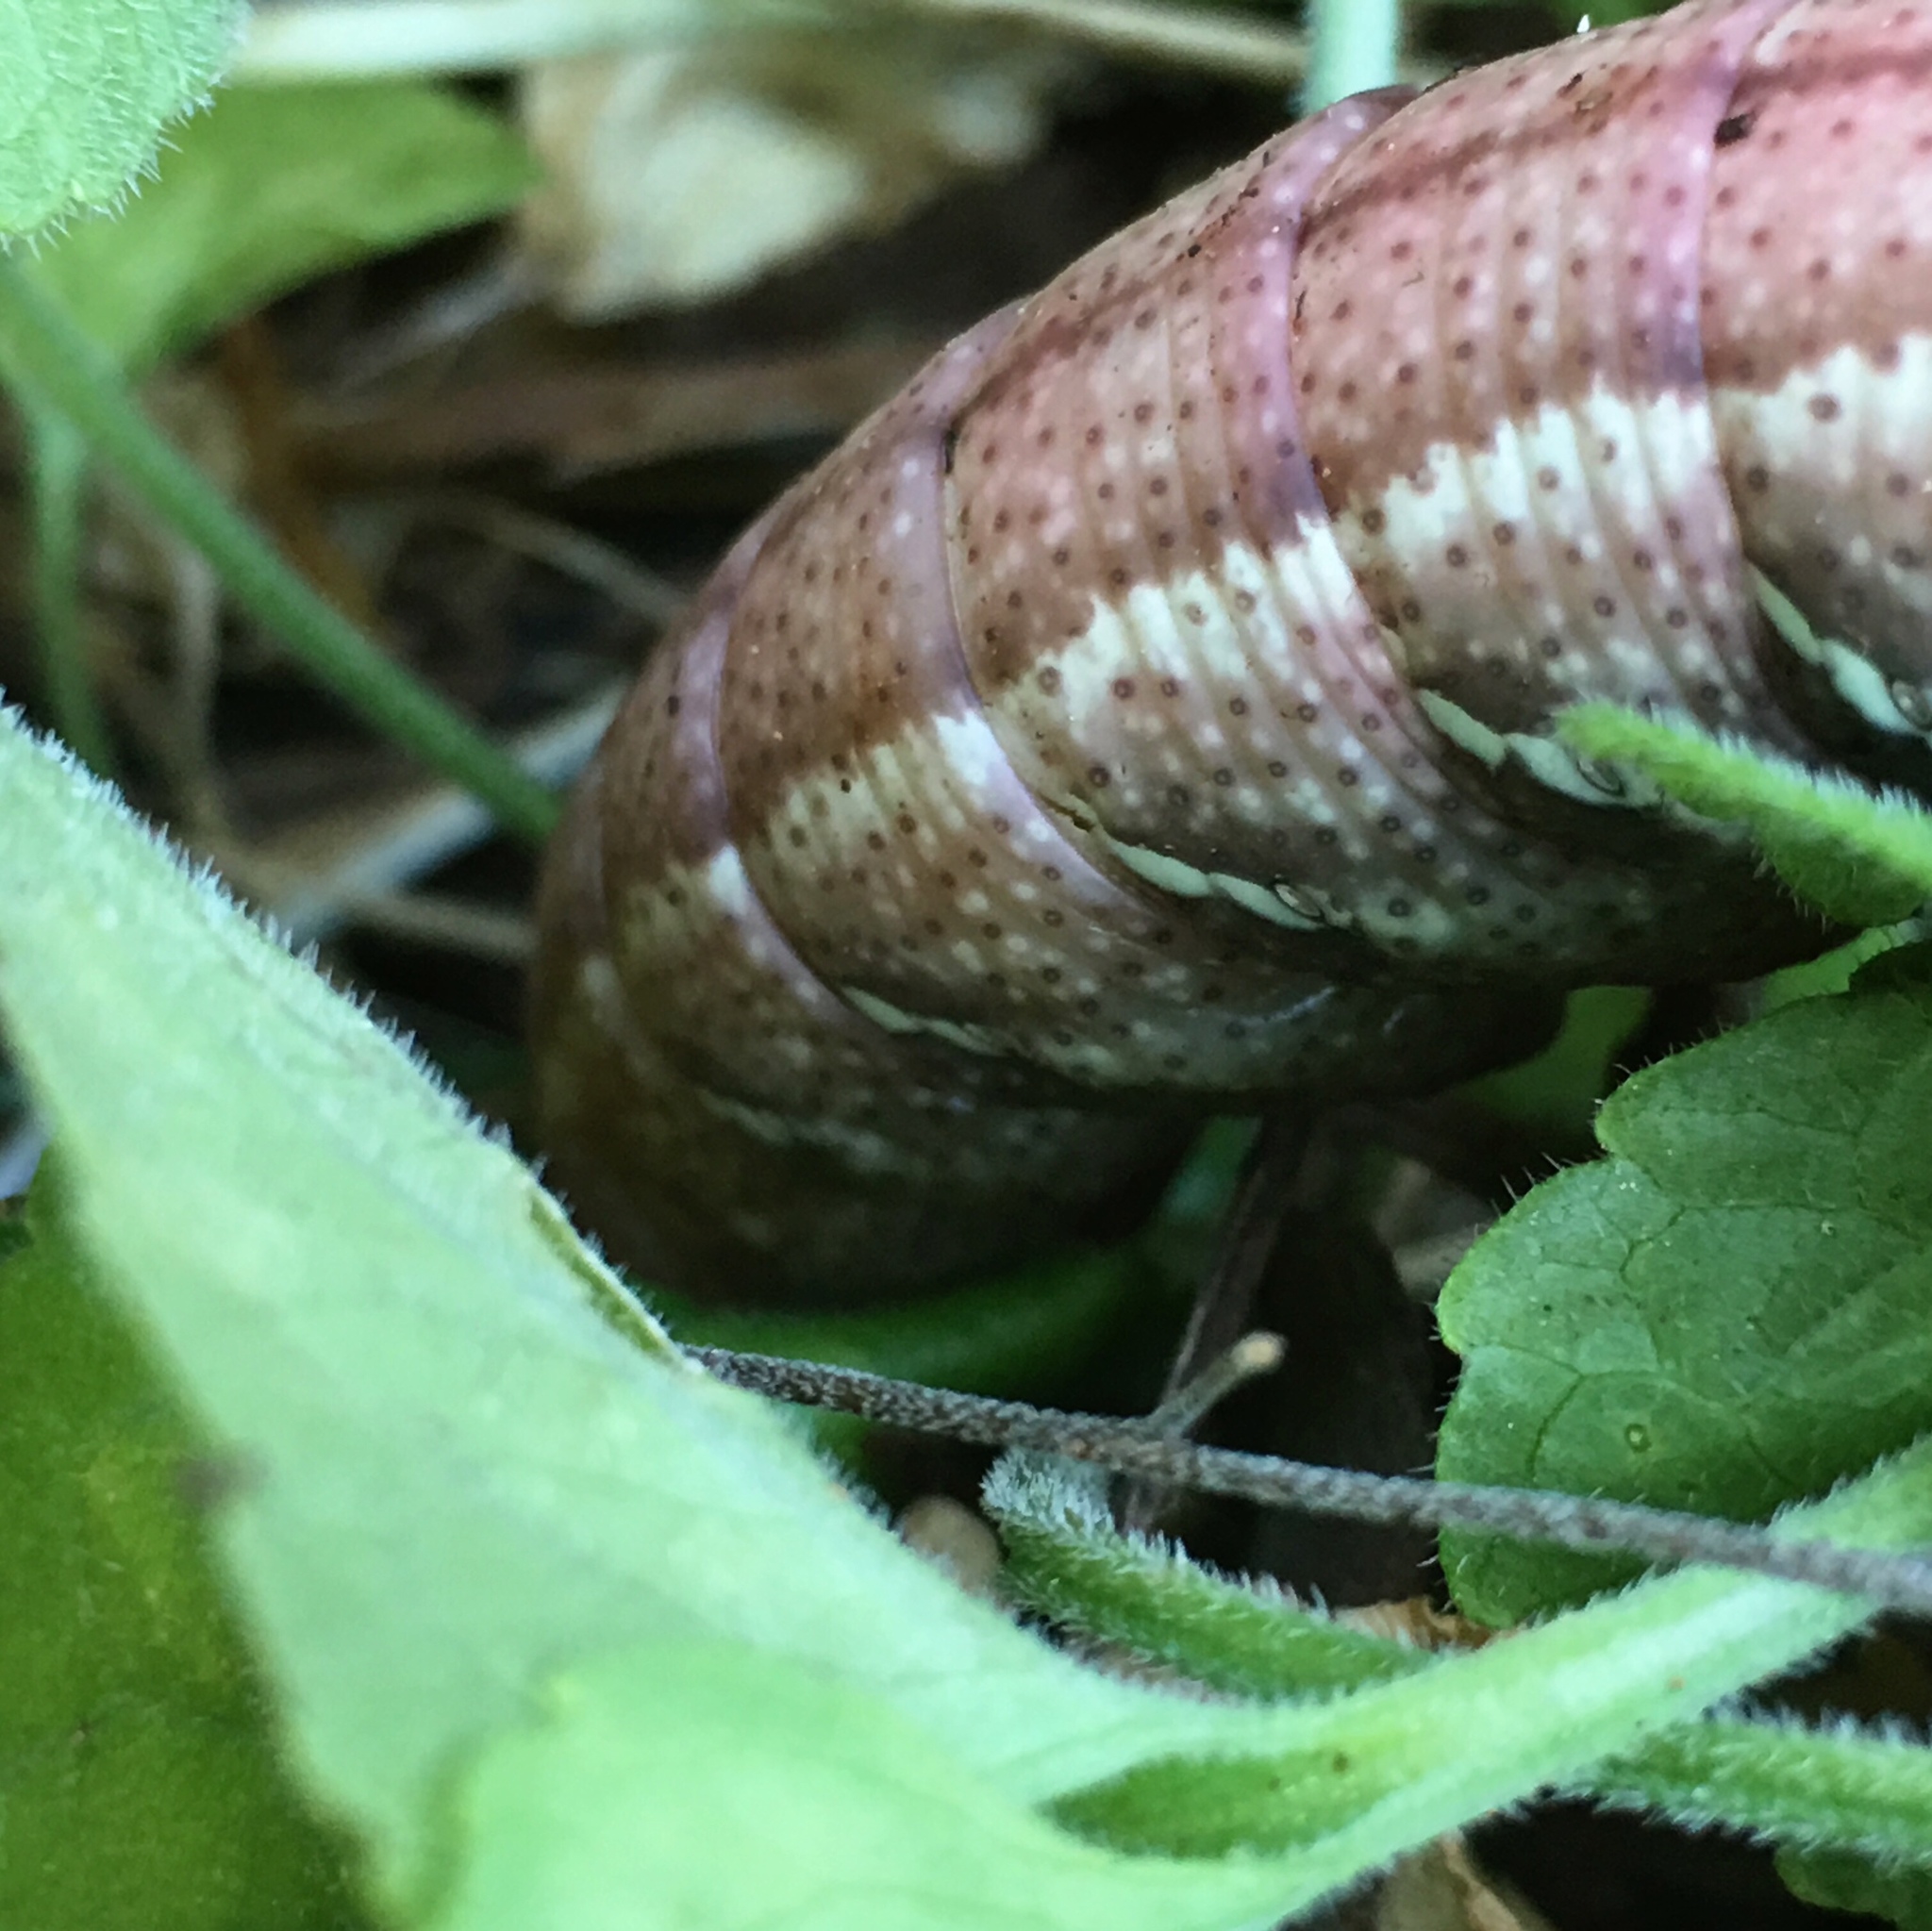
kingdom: Animalia
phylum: Arthropoda
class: Insecta
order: Lepidoptera
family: Sphingidae
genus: Eumorpha
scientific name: Eumorpha achemon
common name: Achemon sphinx
